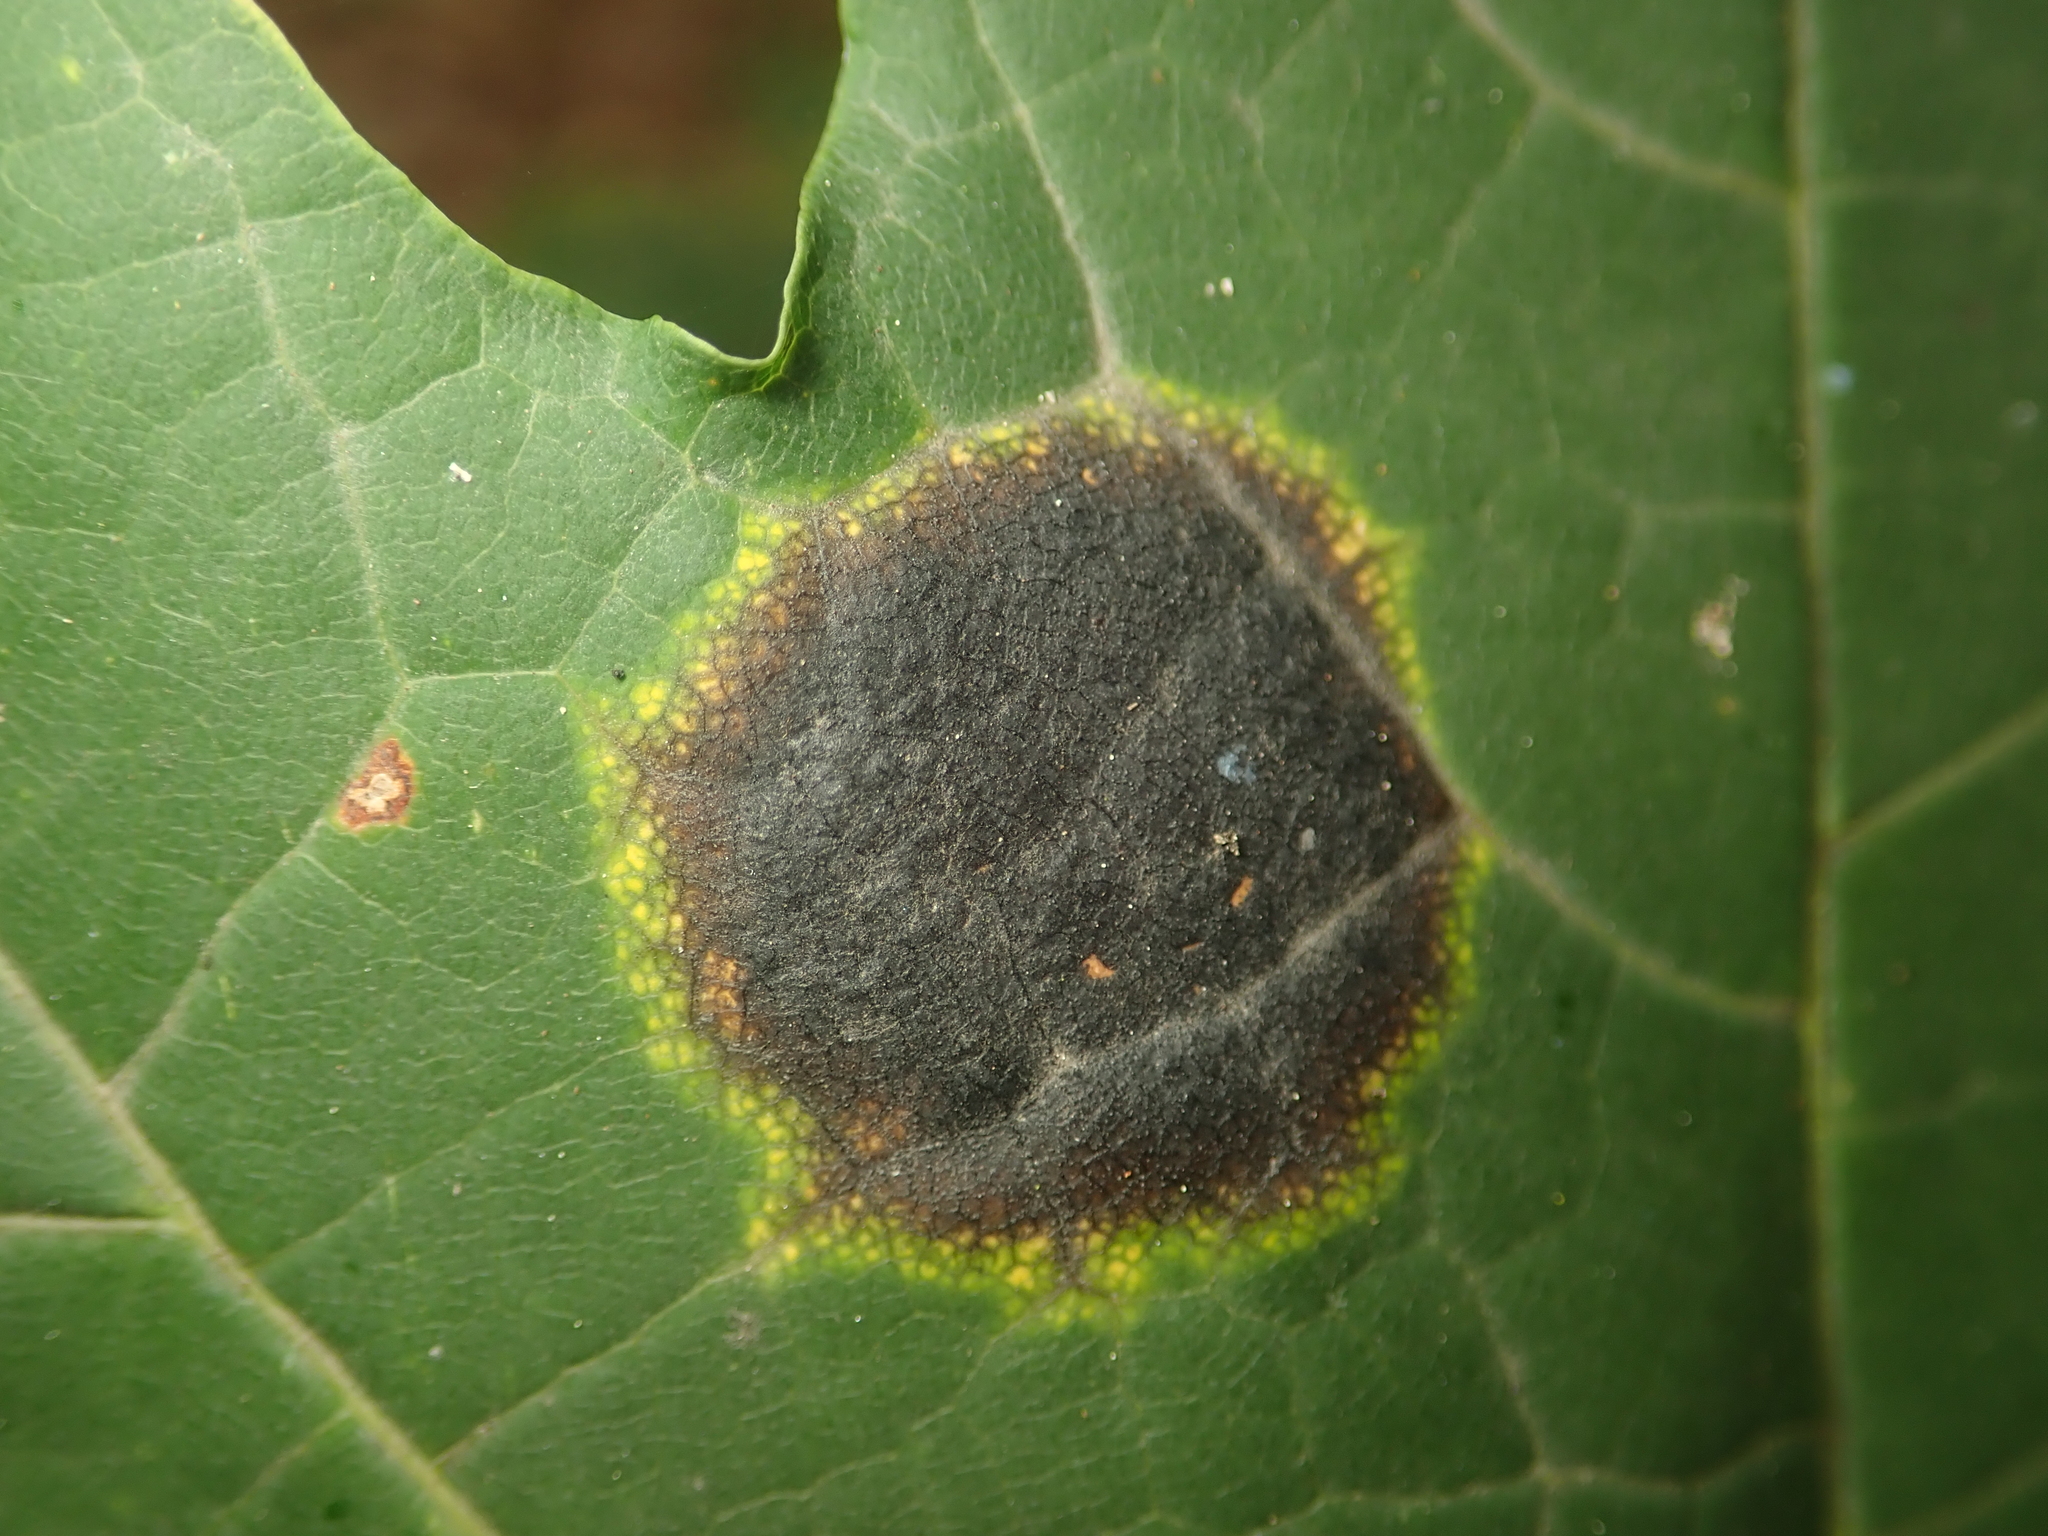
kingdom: Fungi
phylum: Ascomycota
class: Leotiomycetes
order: Rhytismatales
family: Rhytismataceae
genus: Rhytisma
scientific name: Rhytisma acerinum
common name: European tar spot
